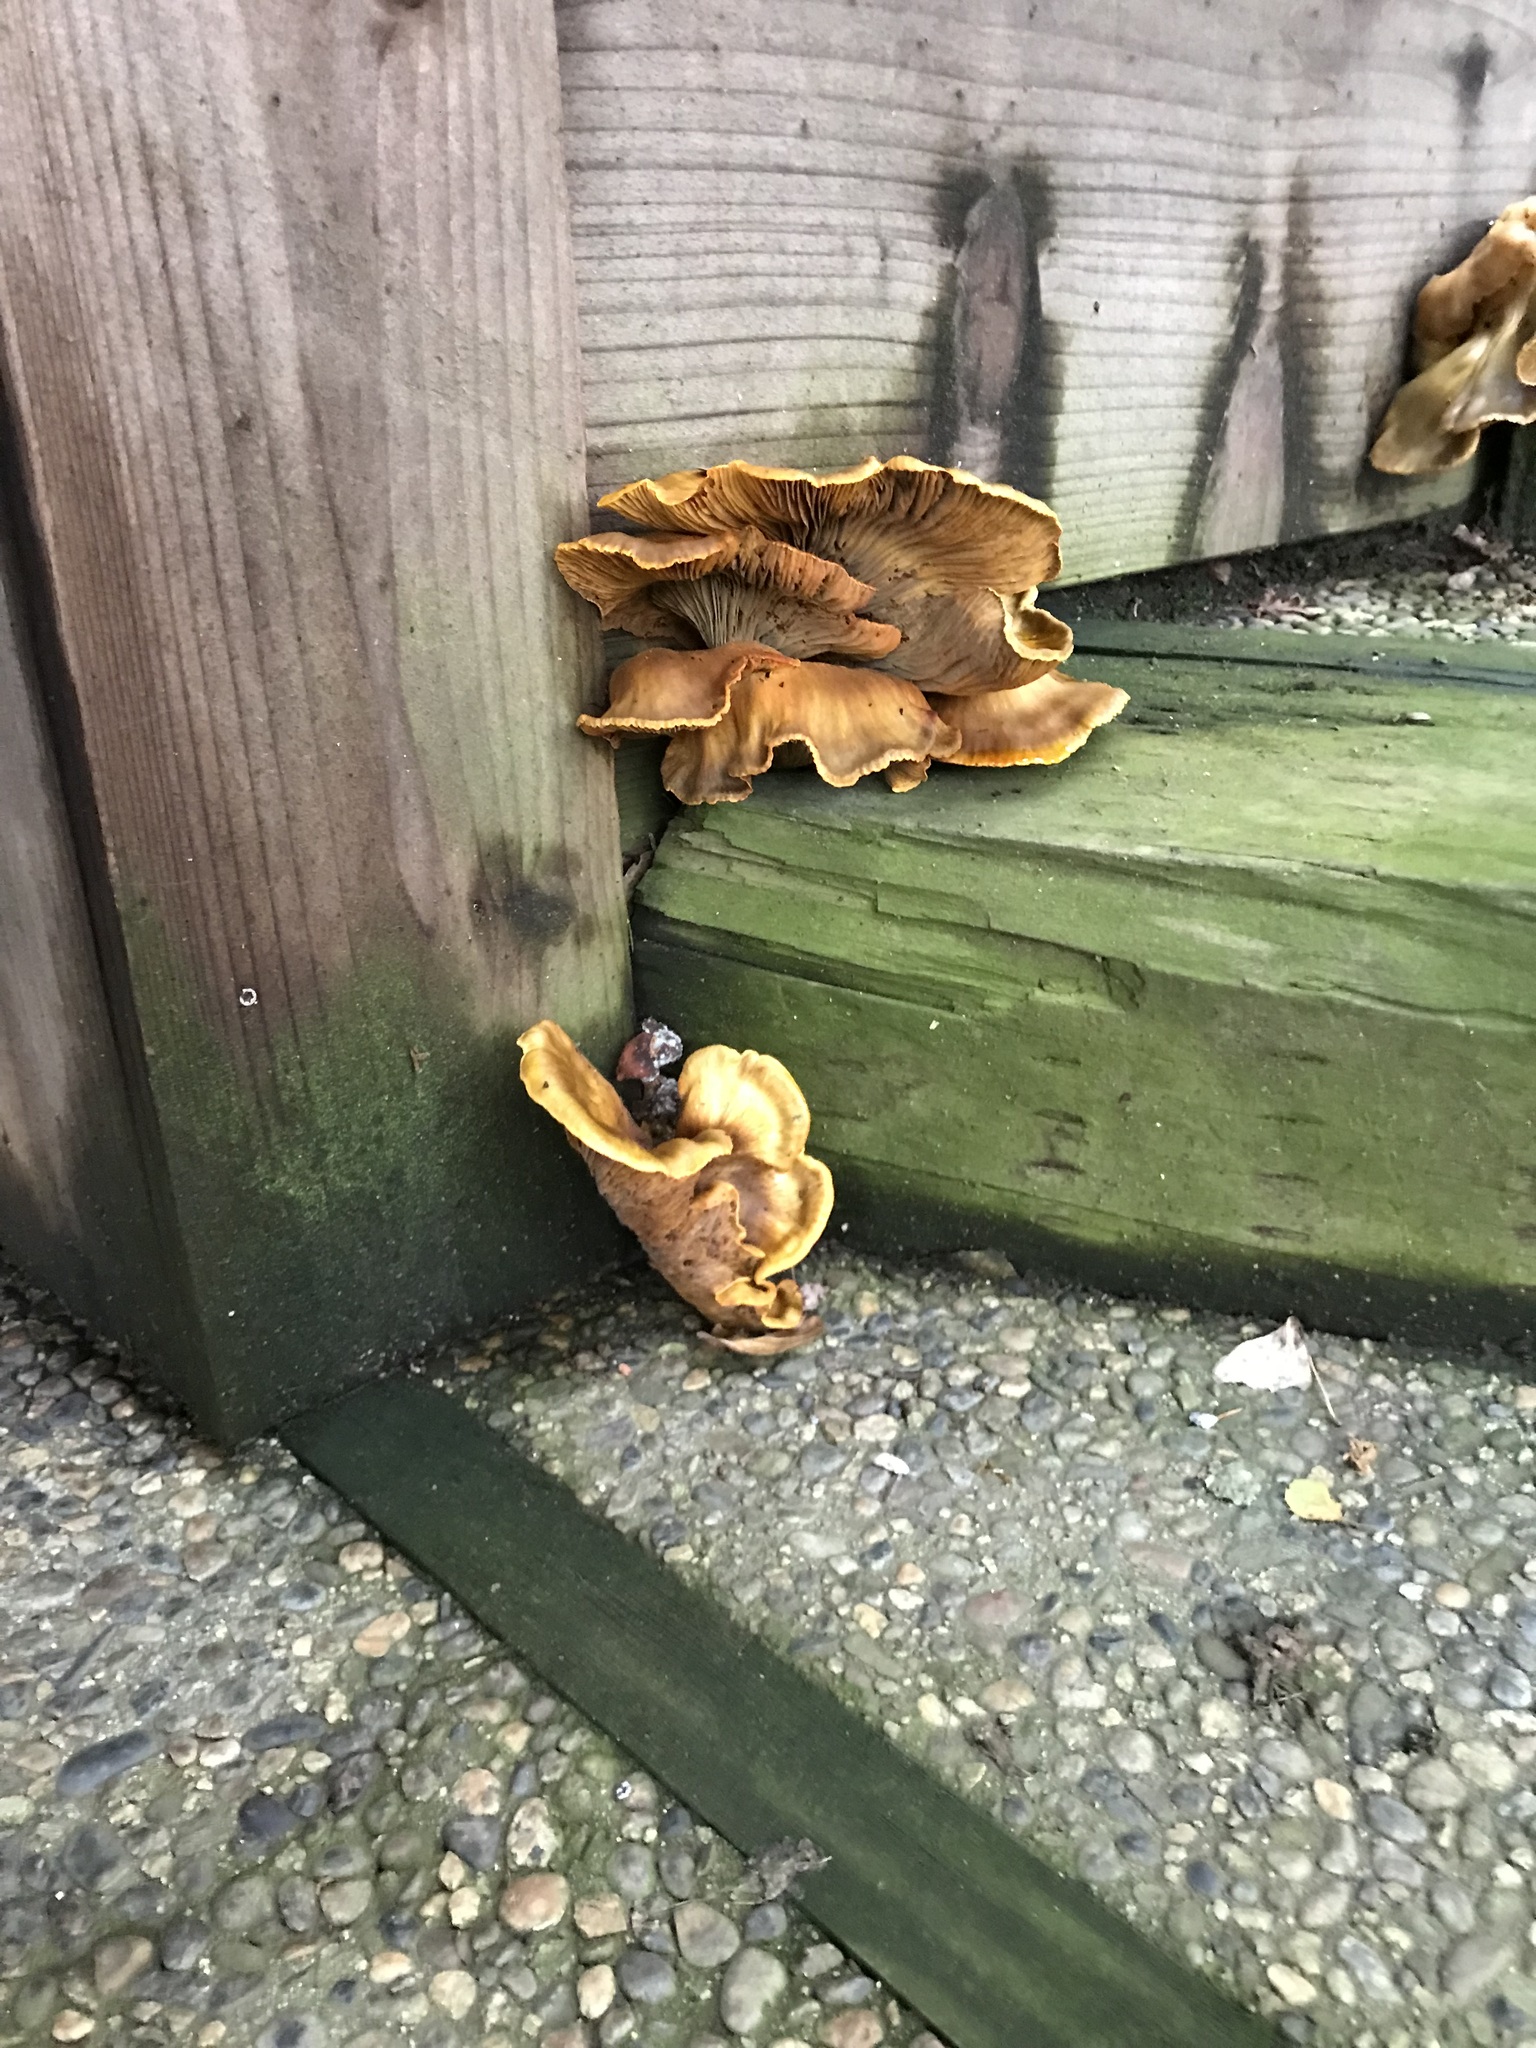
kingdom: Fungi
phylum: Basidiomycota
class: Agaricomycetes
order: Agaricales
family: Omphalotaceae
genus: Omphalotus
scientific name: Omphalotus olivascens
